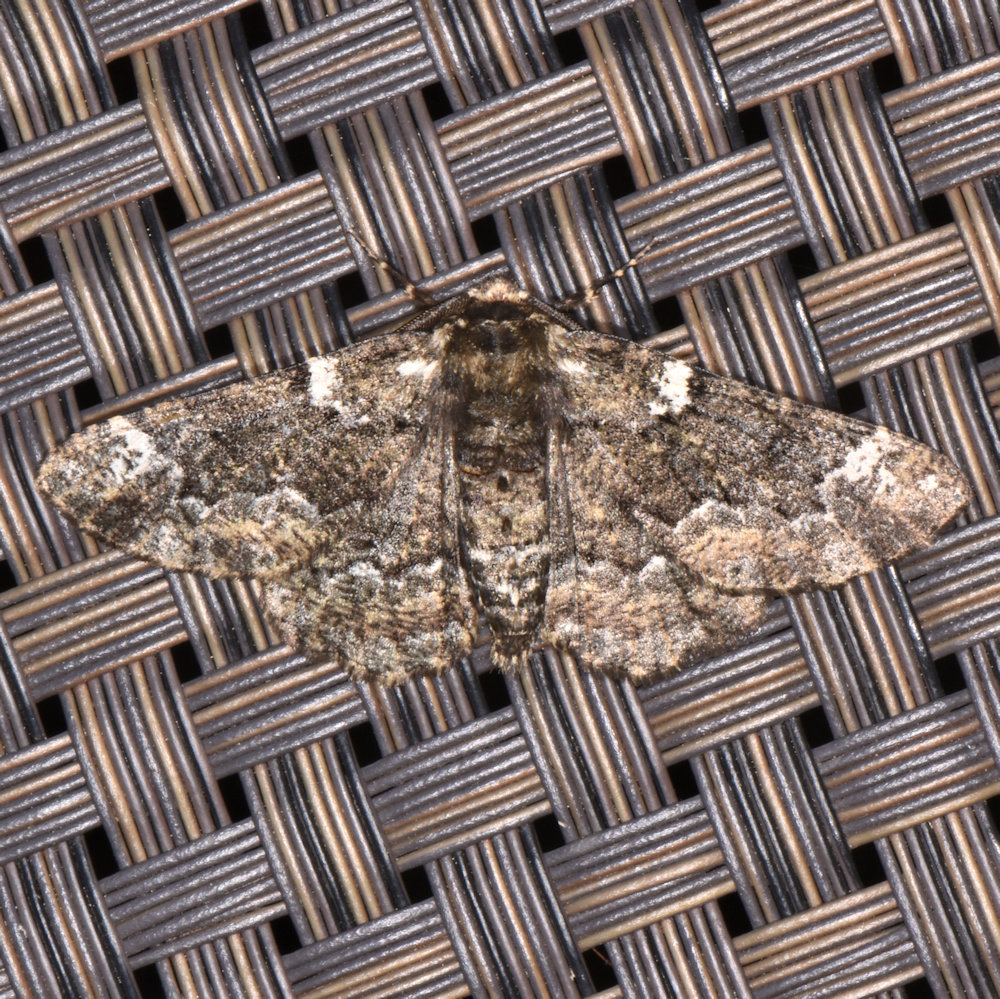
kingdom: Animalia
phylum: Arthropoda
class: Insecta
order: Lepidoptera
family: Geometridae
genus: Phaeoura
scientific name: Phaeoura quernaria
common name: Oak beauty
